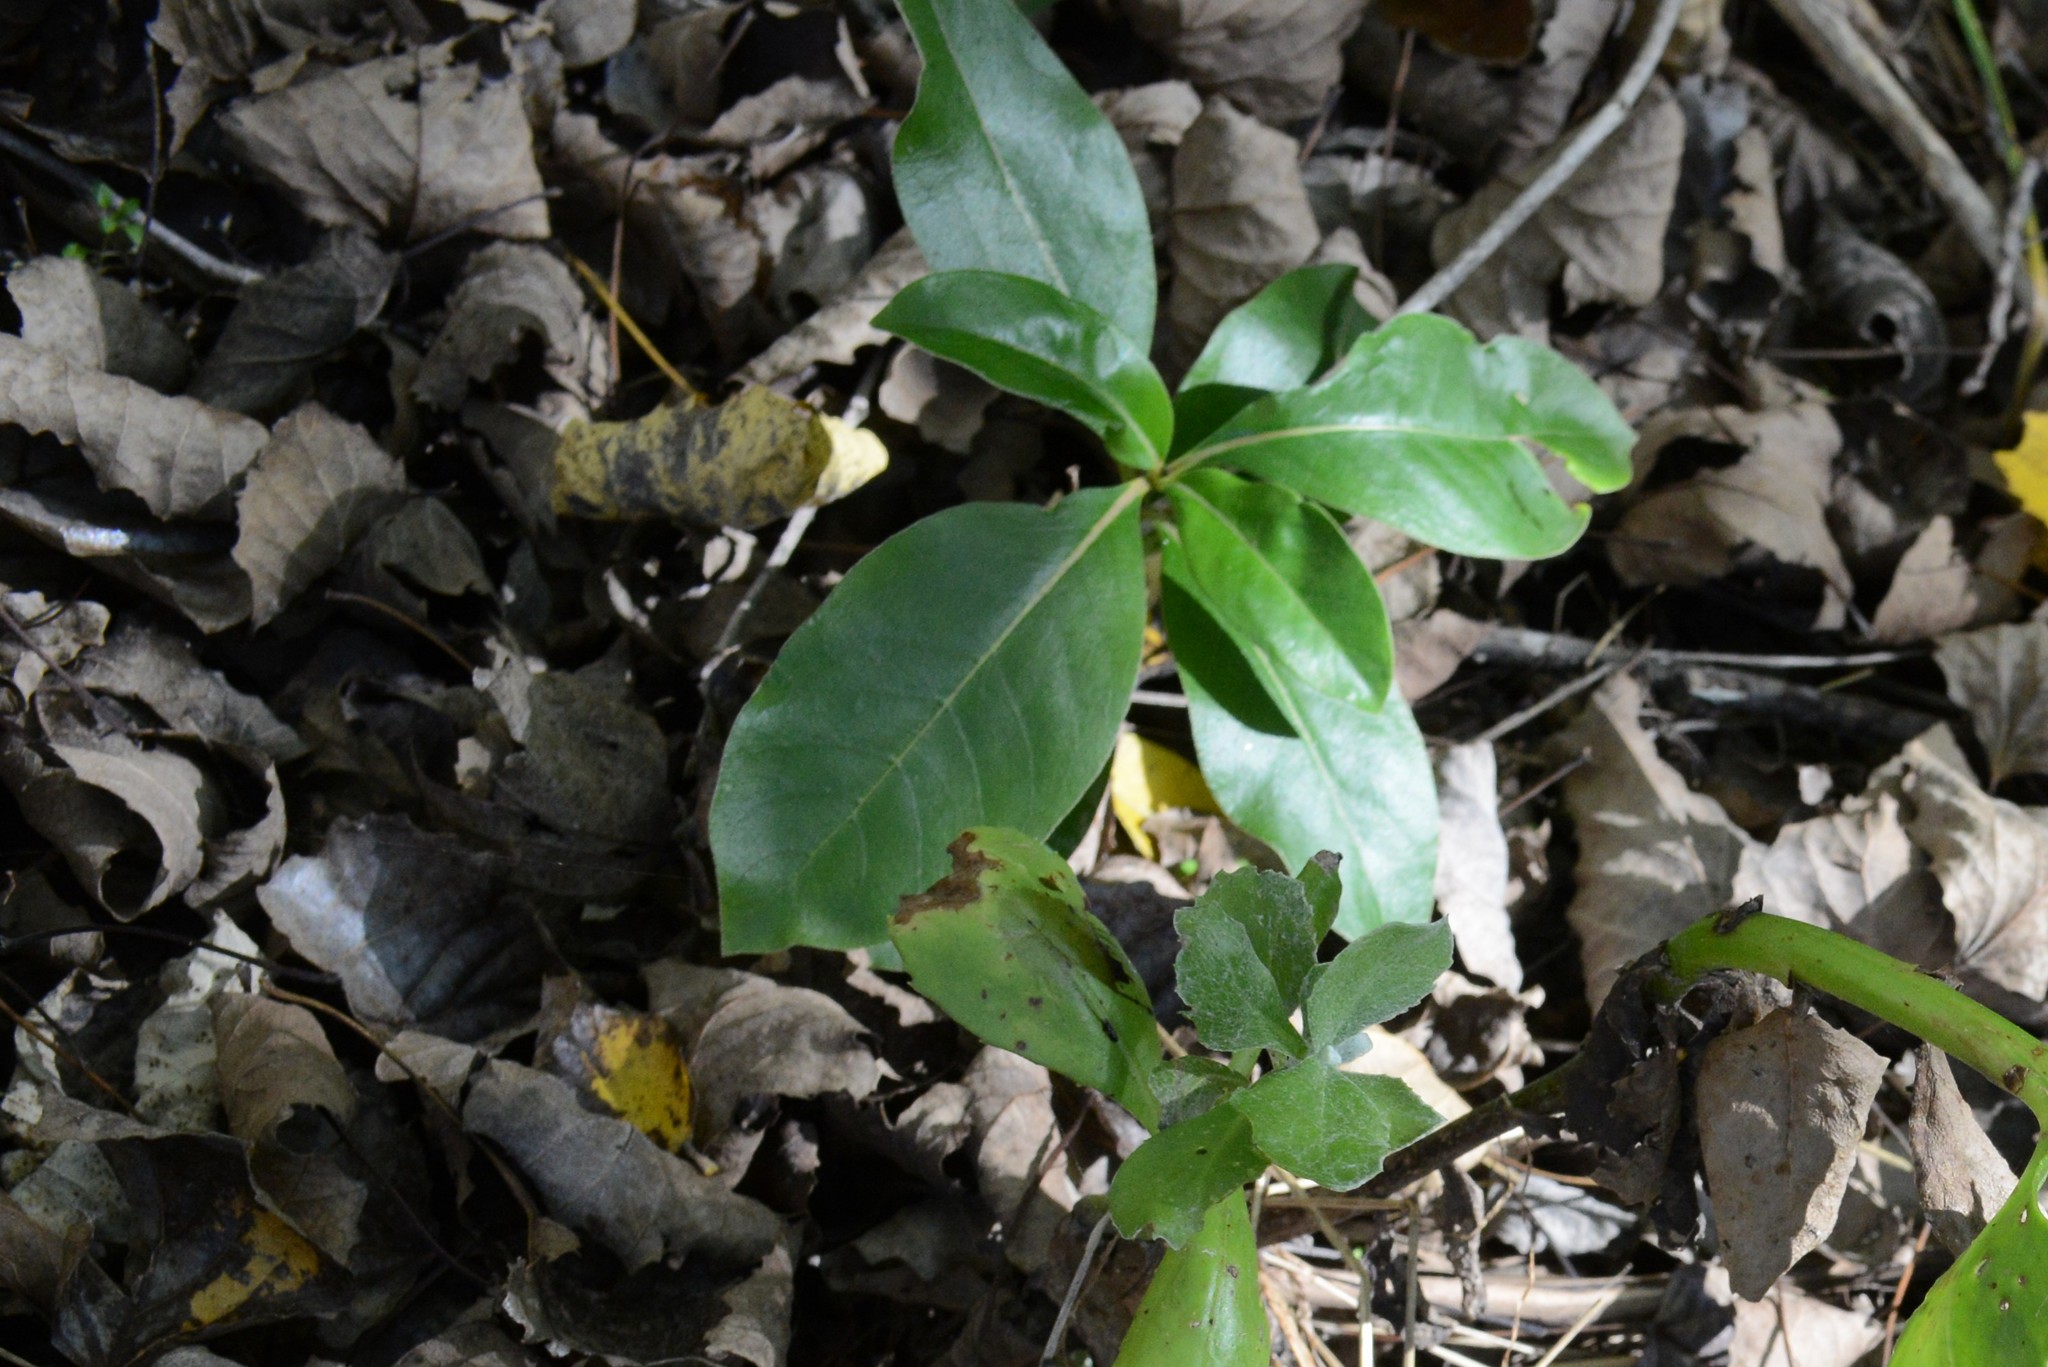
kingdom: Plantae
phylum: Tracheophyta
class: Magnoliopsida
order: Gentianales
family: Rubiaceae
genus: Coprosma
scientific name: Coprosma robusta
